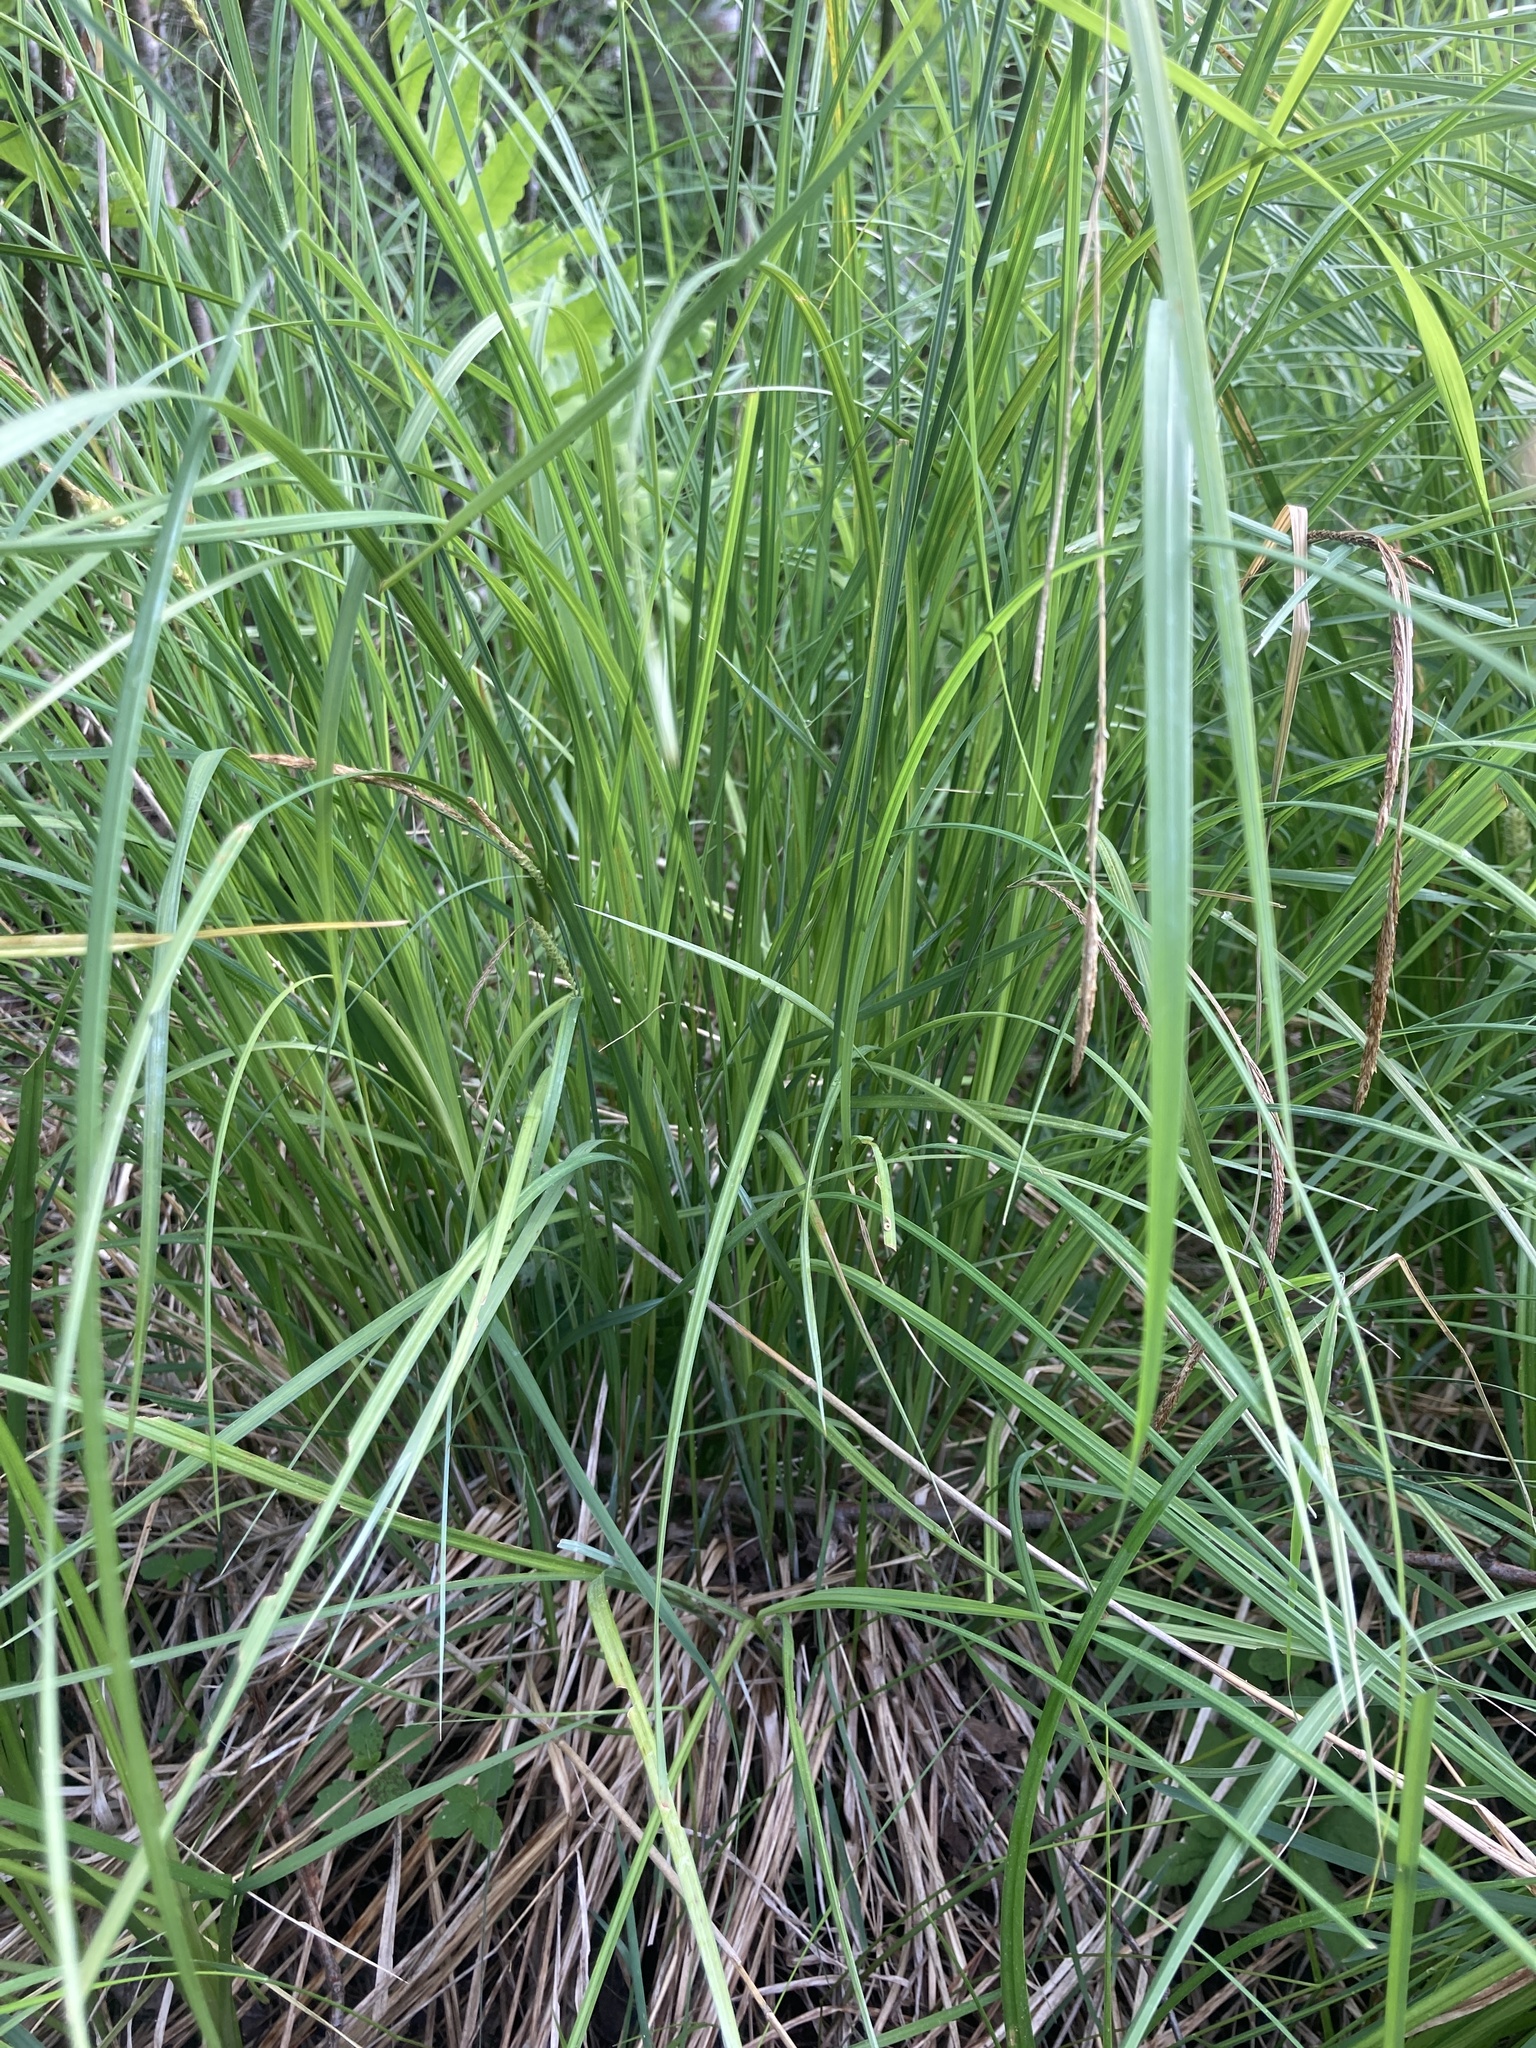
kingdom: Plantae
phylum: Tracheophyta
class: Liliopsida
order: Poales
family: Cyperaceae
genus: Carex
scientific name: Carex stricta
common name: Hummock sedge
